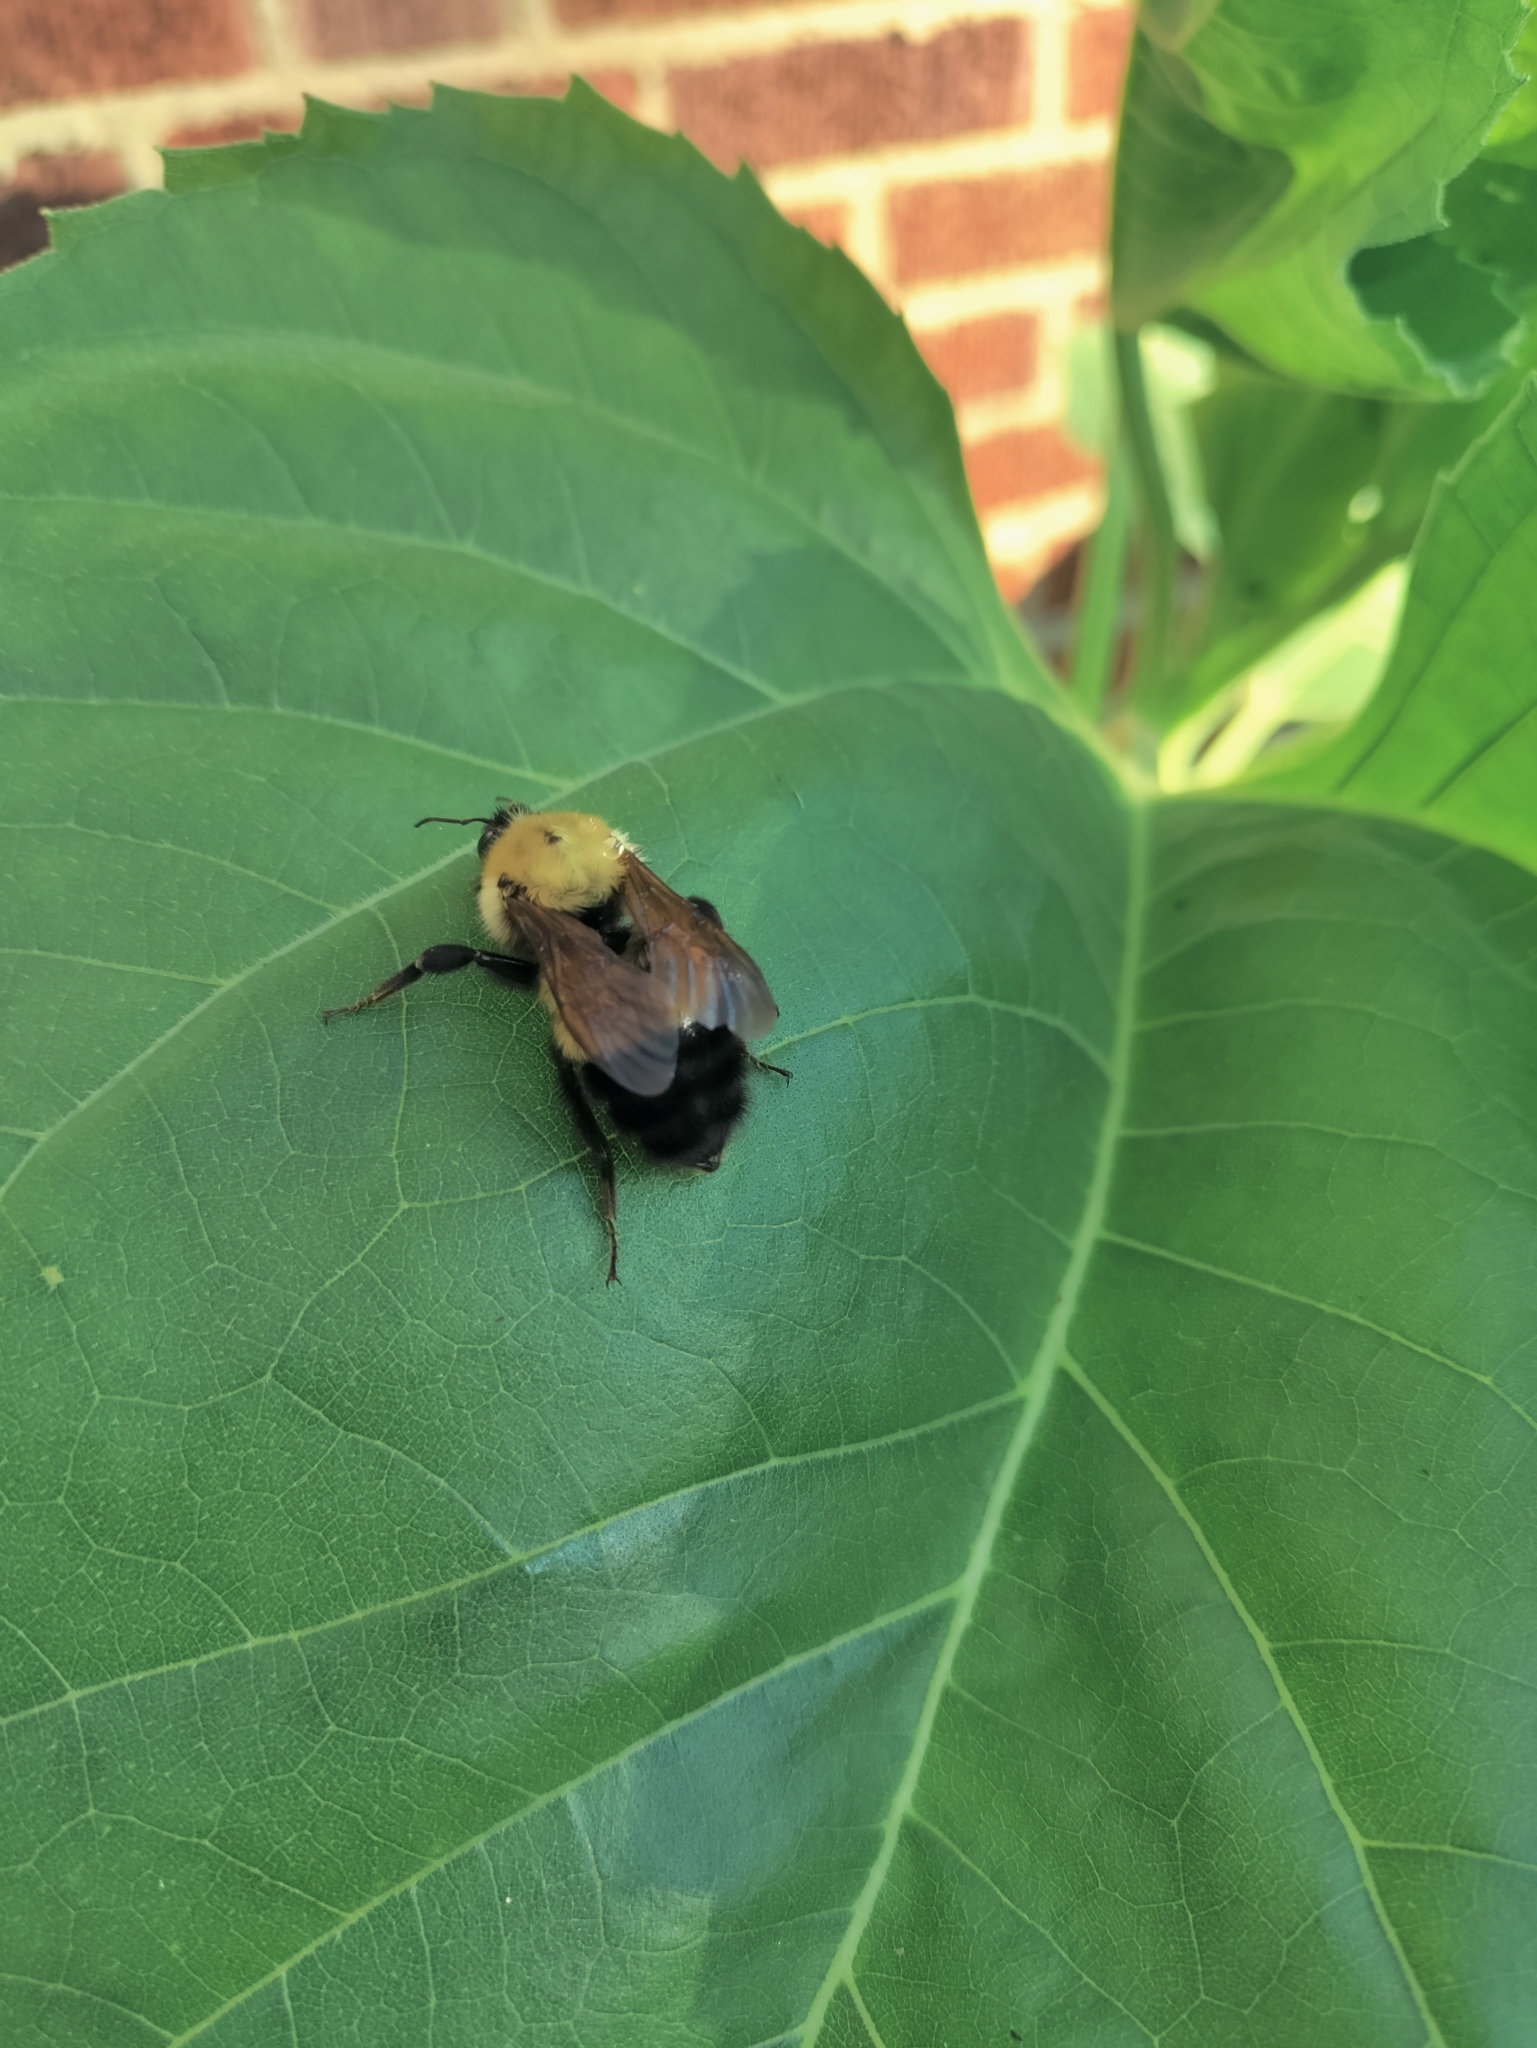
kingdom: Animalia
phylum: Arthropoda
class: Insecta
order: Hymenoptera
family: Apidae
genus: Bombus
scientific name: Bombus perplexus
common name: Confusing bumble bee
